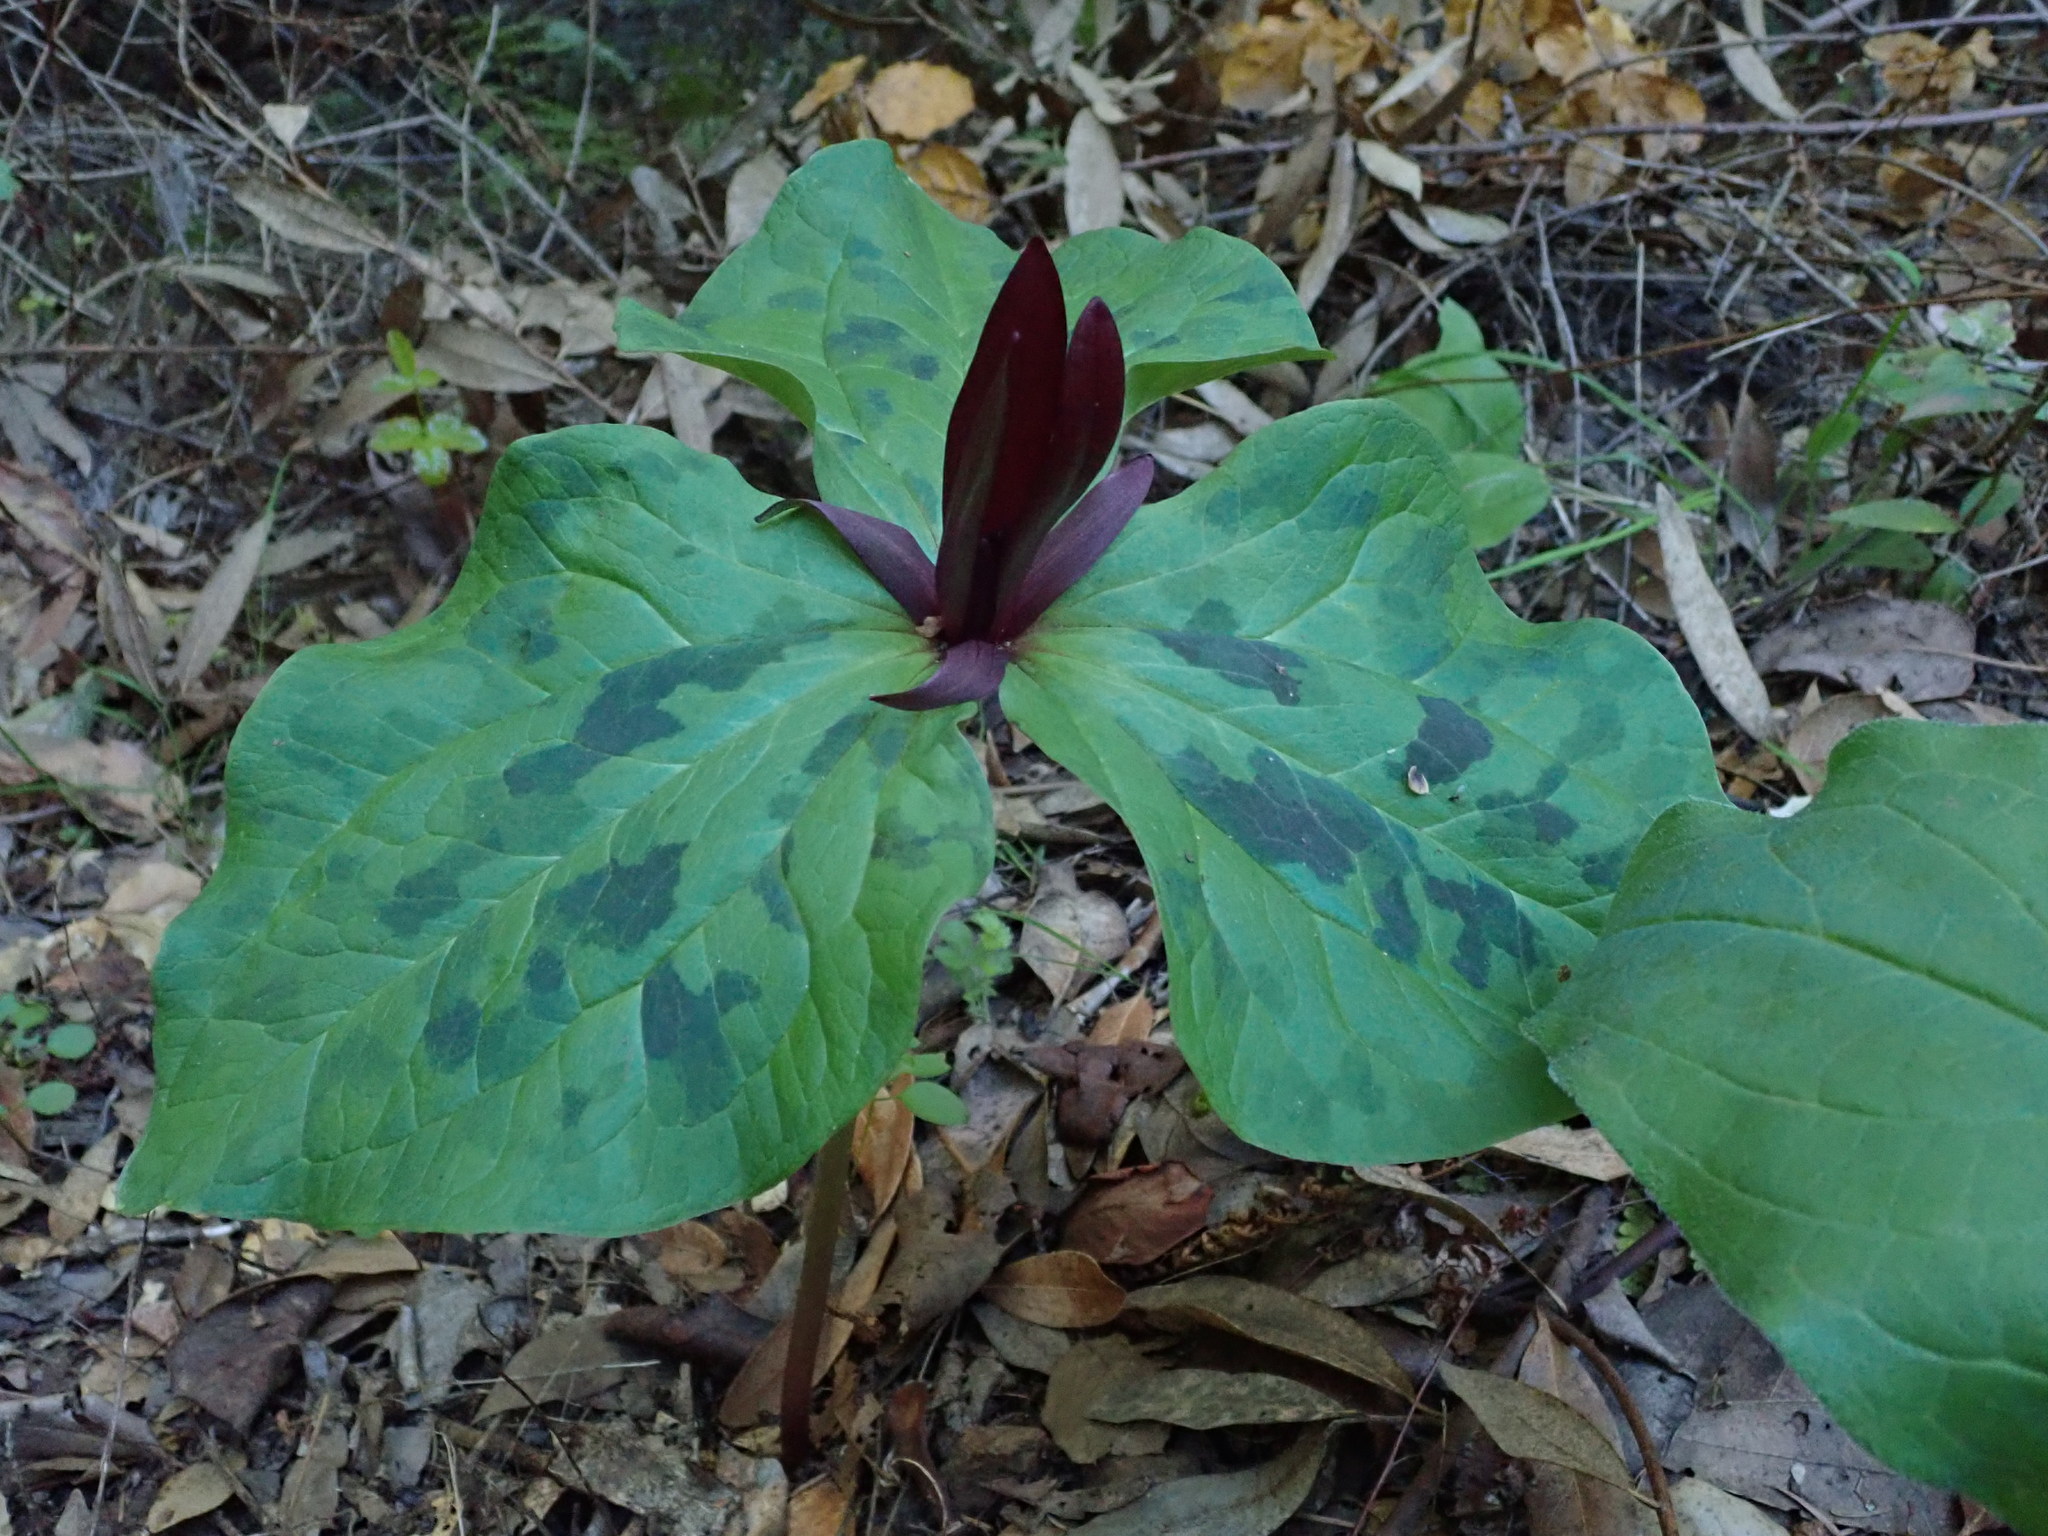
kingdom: Plantae
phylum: Tracheophyta
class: Liliopsida
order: Liliales
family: Melanthiaceae
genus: Trillium
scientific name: Trillium chloropetalum
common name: Giant trillium
